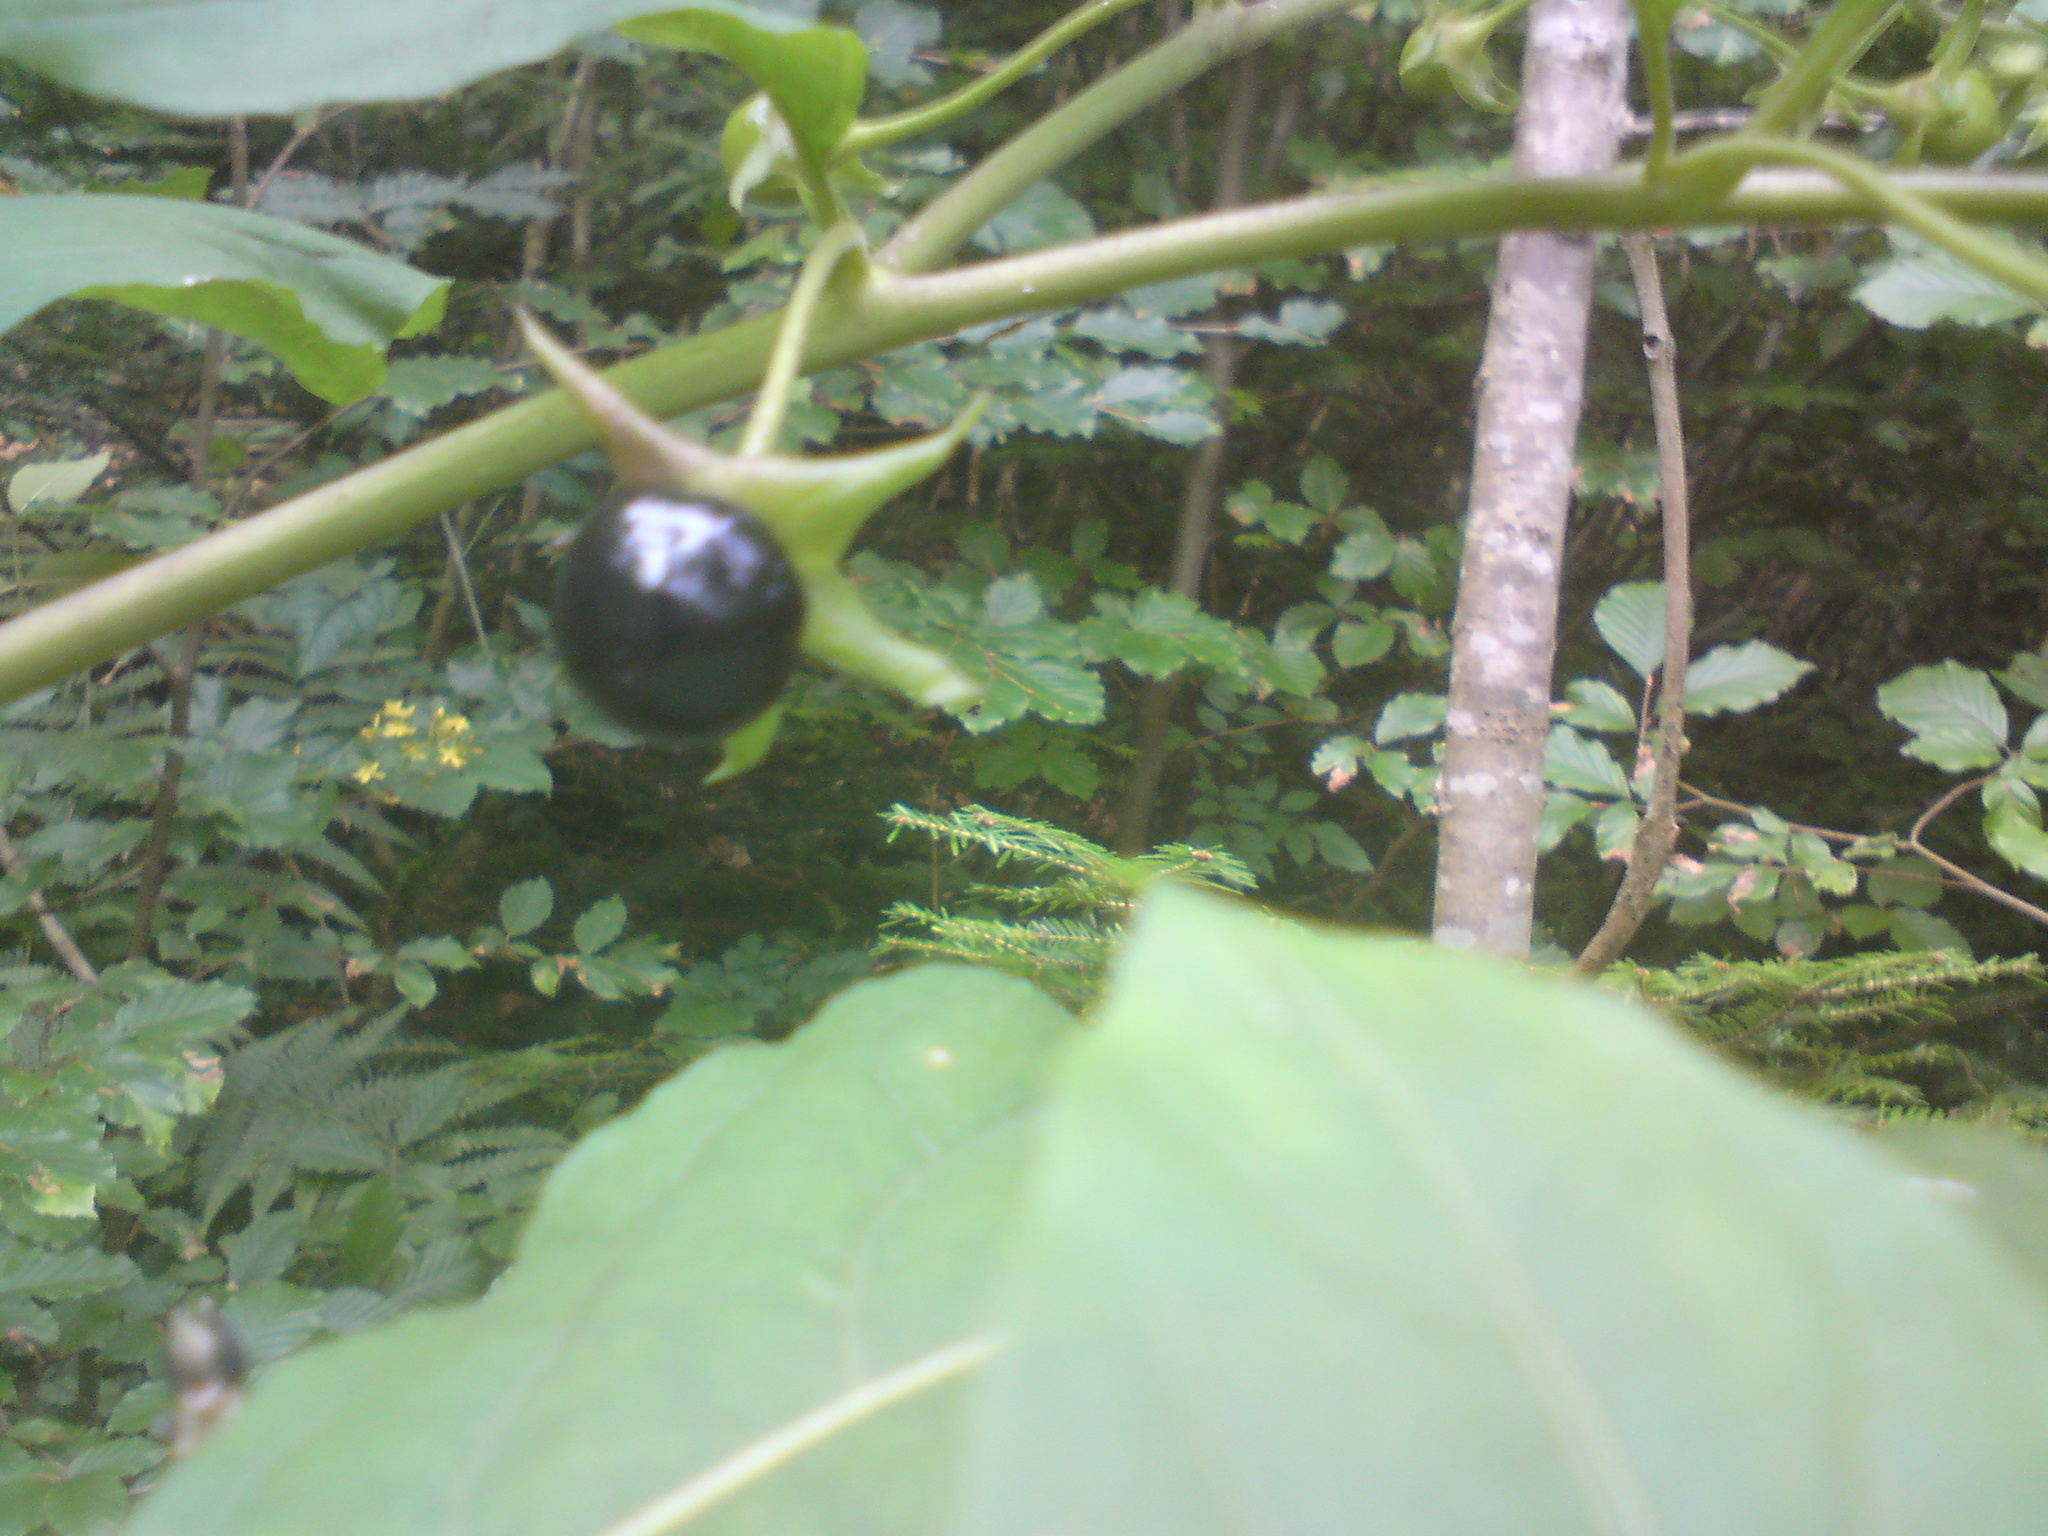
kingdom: Plantae
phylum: Tracheophyta
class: Magnoliopsida
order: Solanales
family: Solanaceae
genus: Atropa
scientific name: Atropa belladonna
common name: Deadly nightshade
